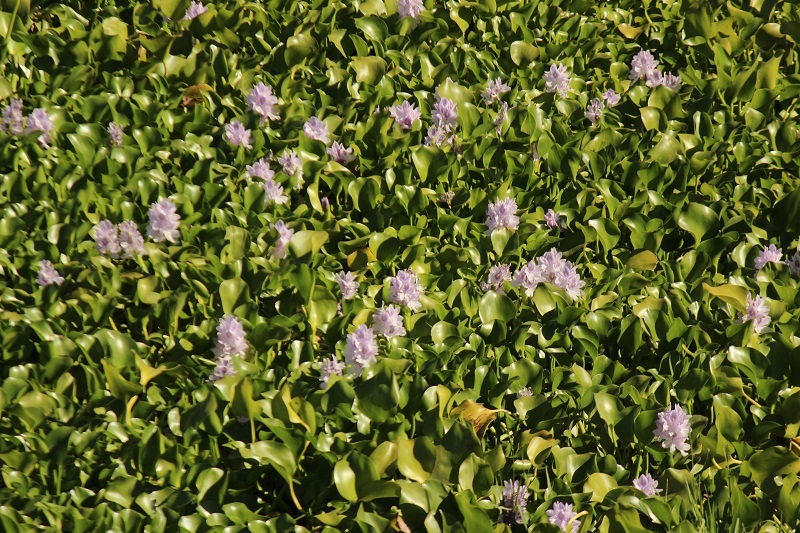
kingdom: Plantae
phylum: Tracheophyta
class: Liliopsida
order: Commelinales
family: Pontederiaceae
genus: Pontederia
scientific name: Pontederia crassipes
